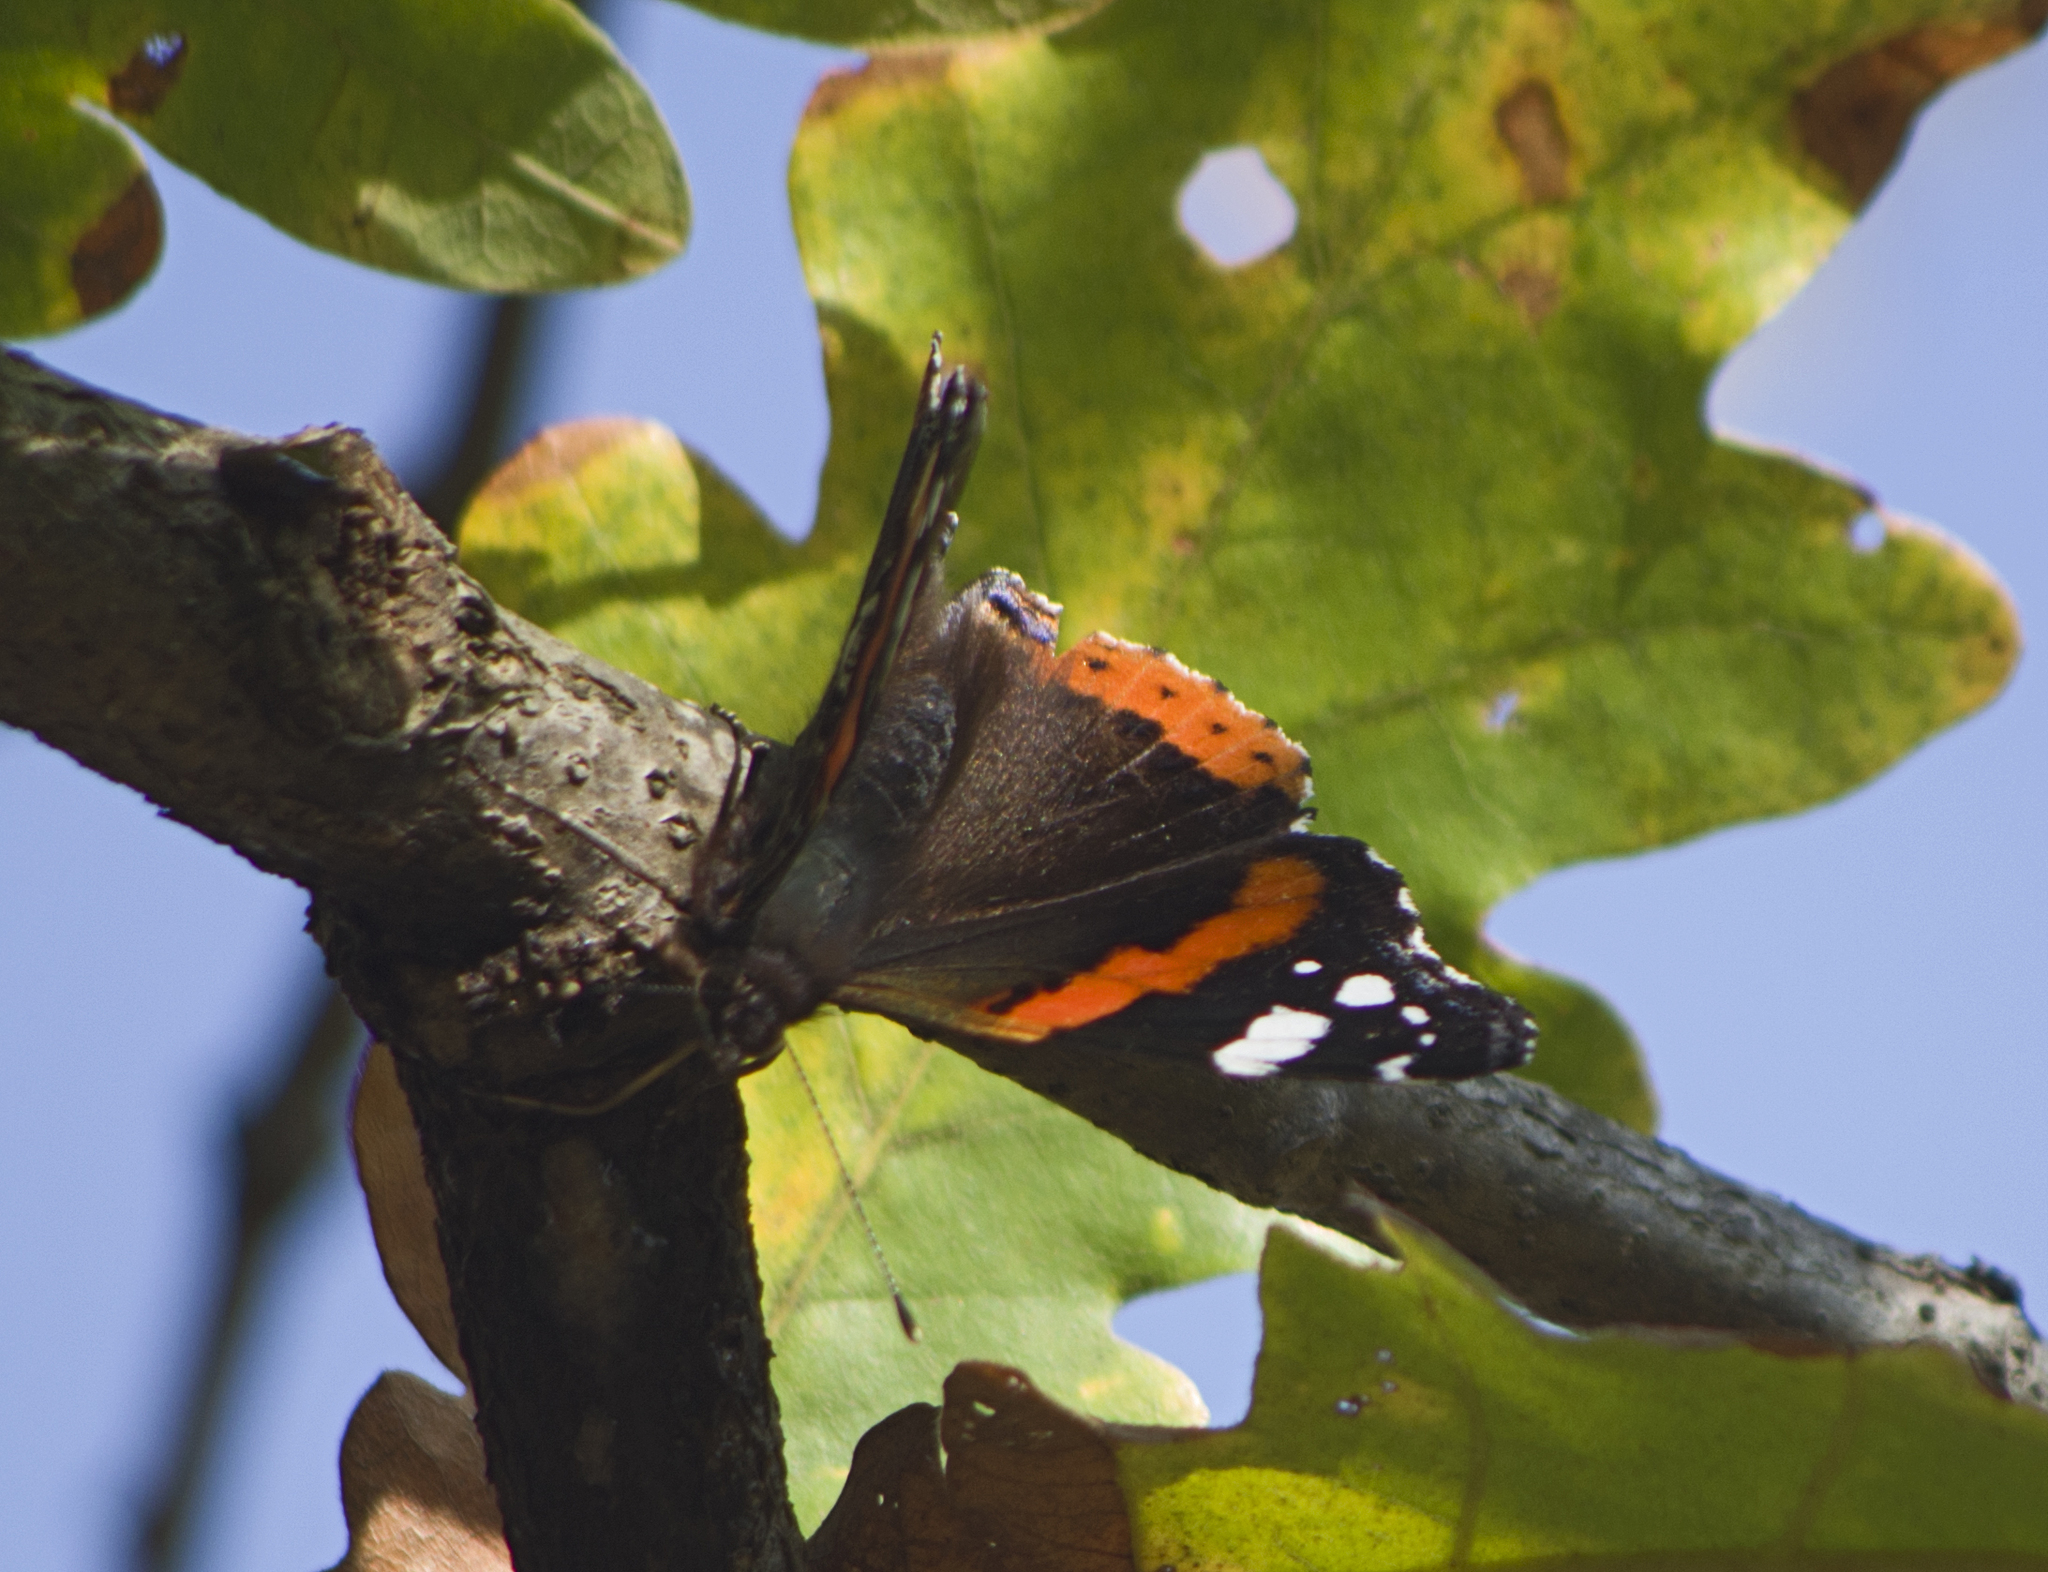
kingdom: Animalia
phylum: Arthropoda
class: Insecta
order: Lepidoptera
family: Nymphalidae
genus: Vanessa
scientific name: Vanessa atalanta
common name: Red admiral
